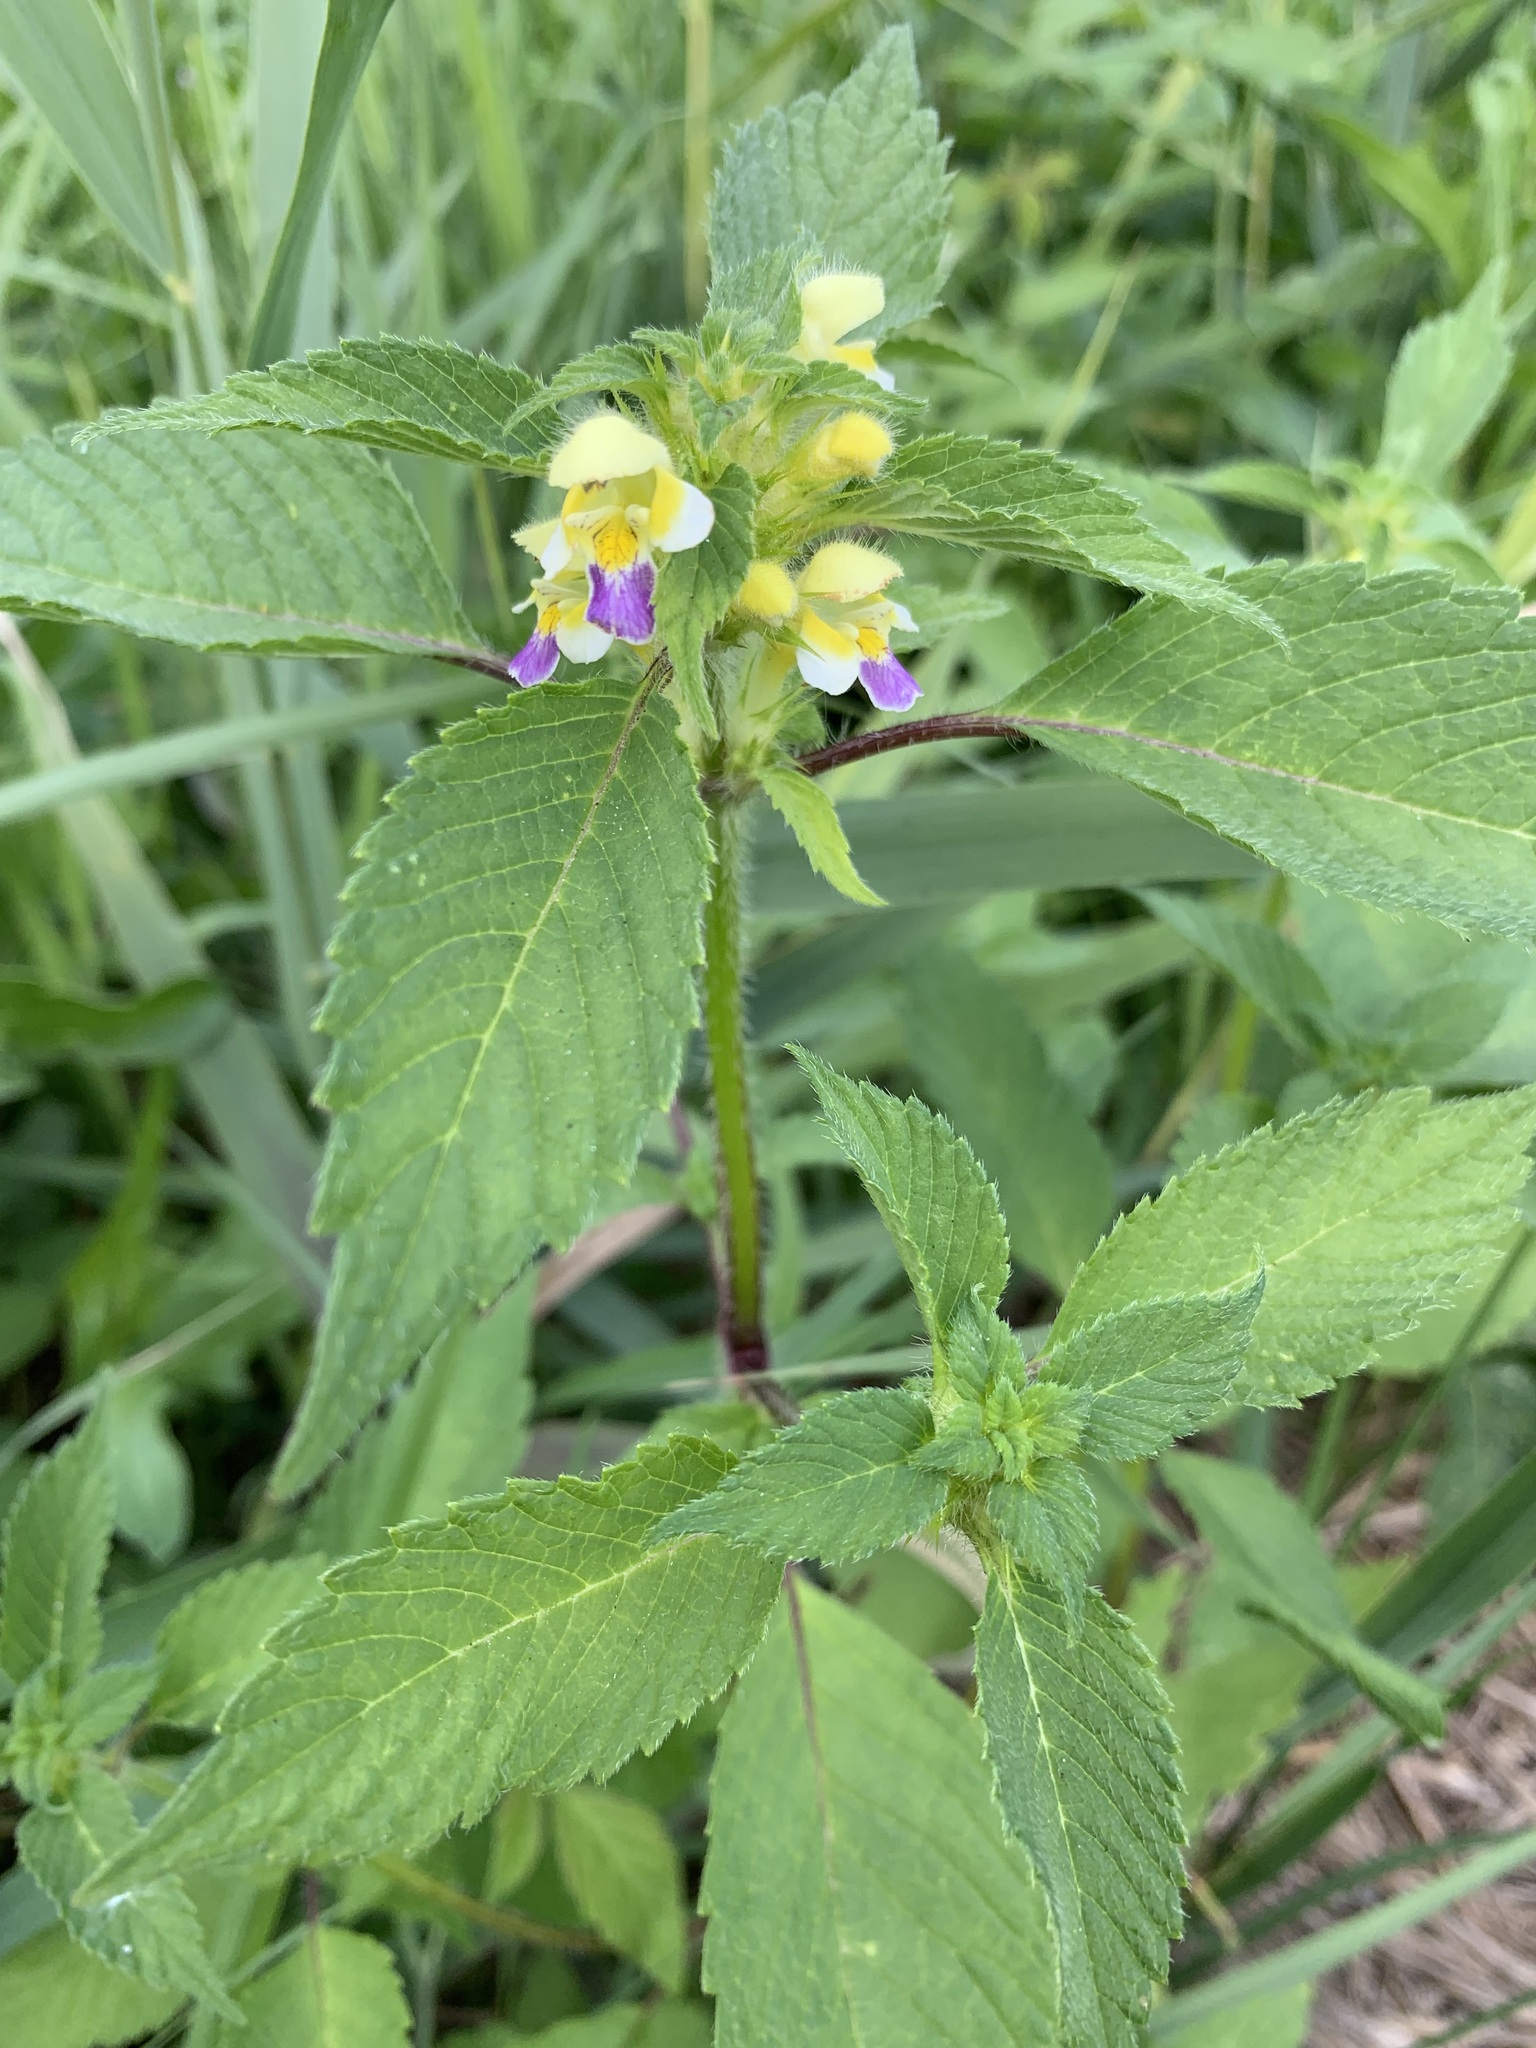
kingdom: Plantae
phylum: Tracheophyta
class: Magnoliopsida
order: Lamiales
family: Lamiaceae
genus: Galeopsis
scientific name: Galeopsis speciosa
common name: Large-flowered hemp-nettle
